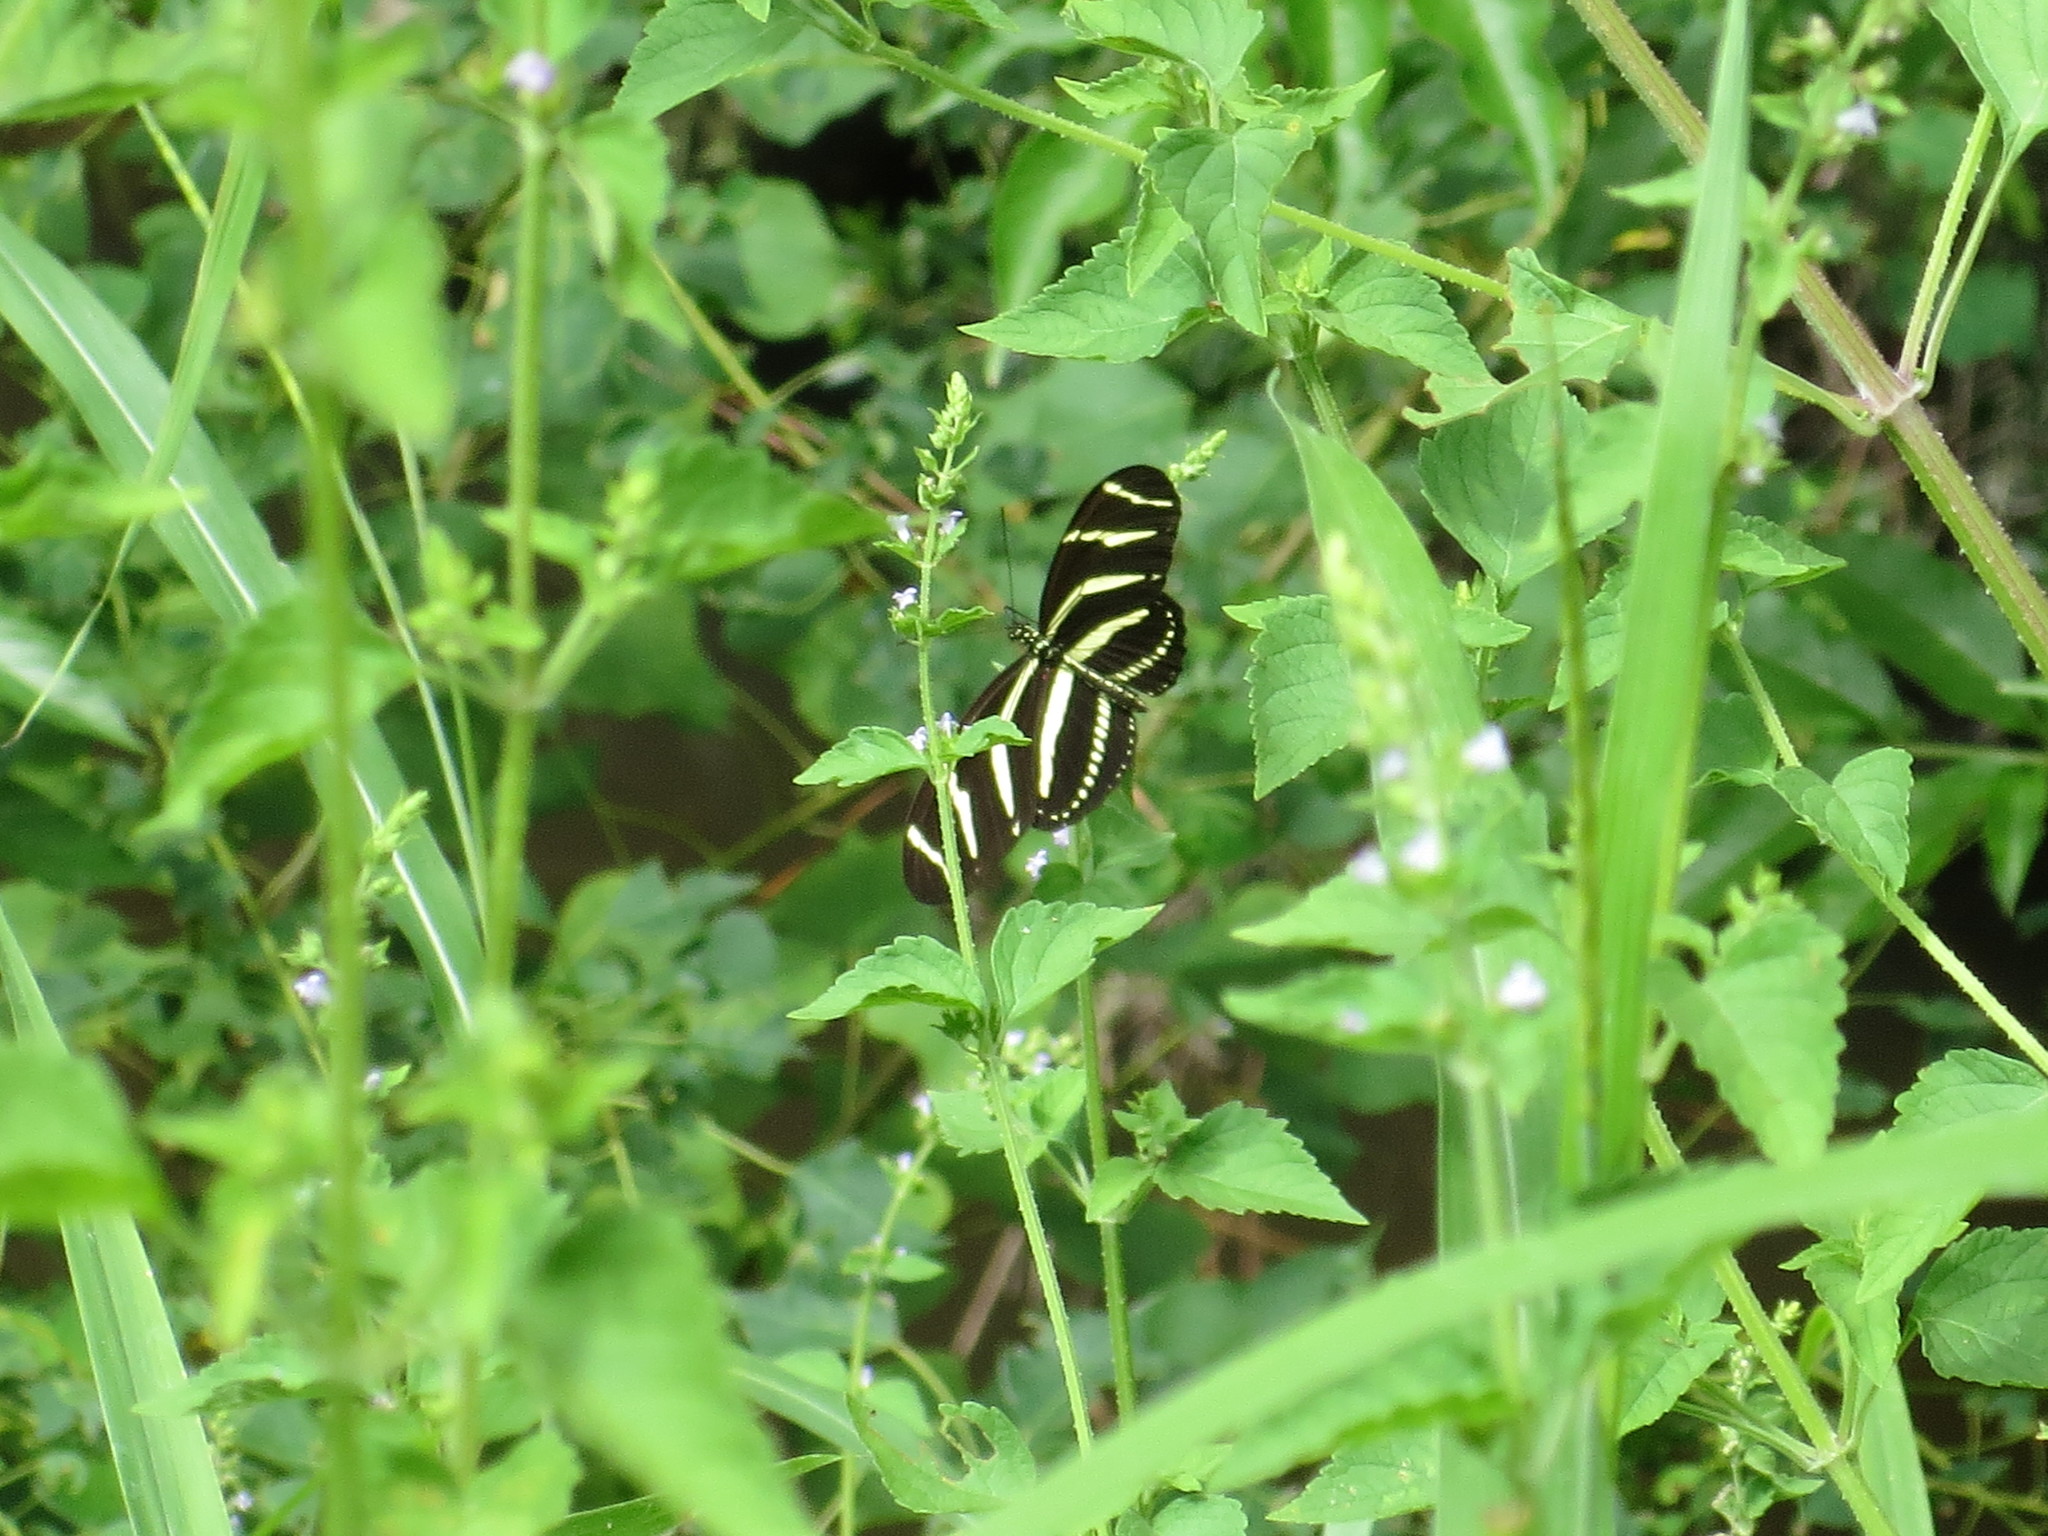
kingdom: Animalia
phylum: Arthropoda
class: Insecta
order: Lepidoptera
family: Nymphalidae
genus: Heliconius
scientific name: Heliconius charithonia
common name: Zebra long wing
